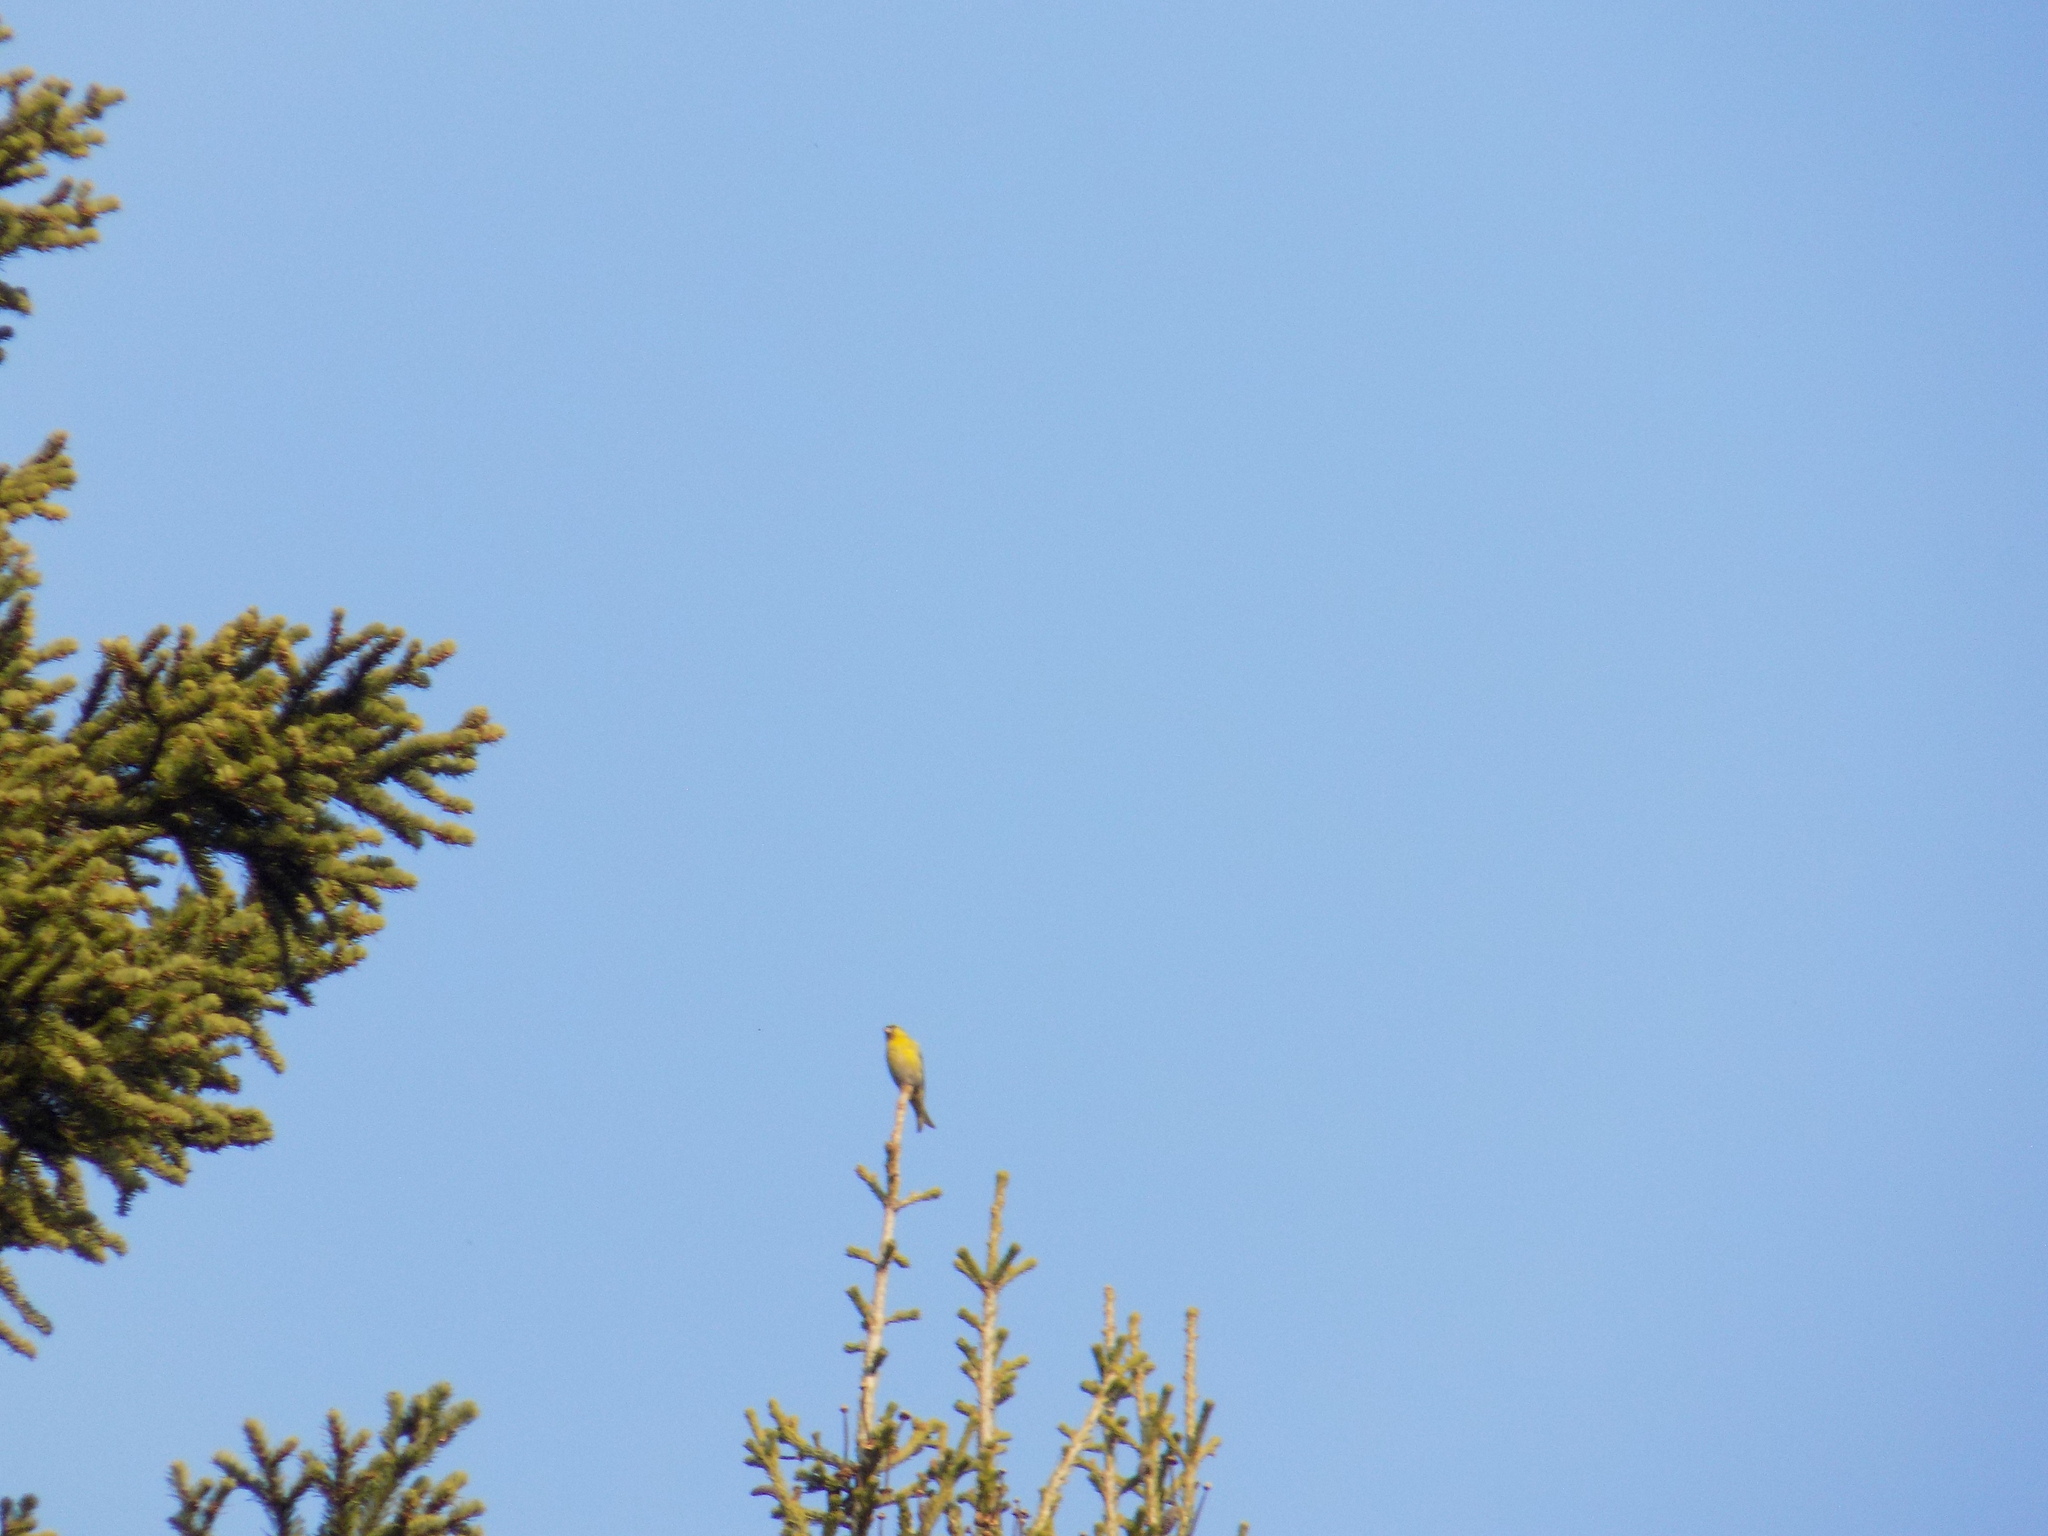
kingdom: Plantae
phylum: Tracheophyta
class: Liliopsida
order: Poales
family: Poaceae
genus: Chloris
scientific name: Chloris chloris
